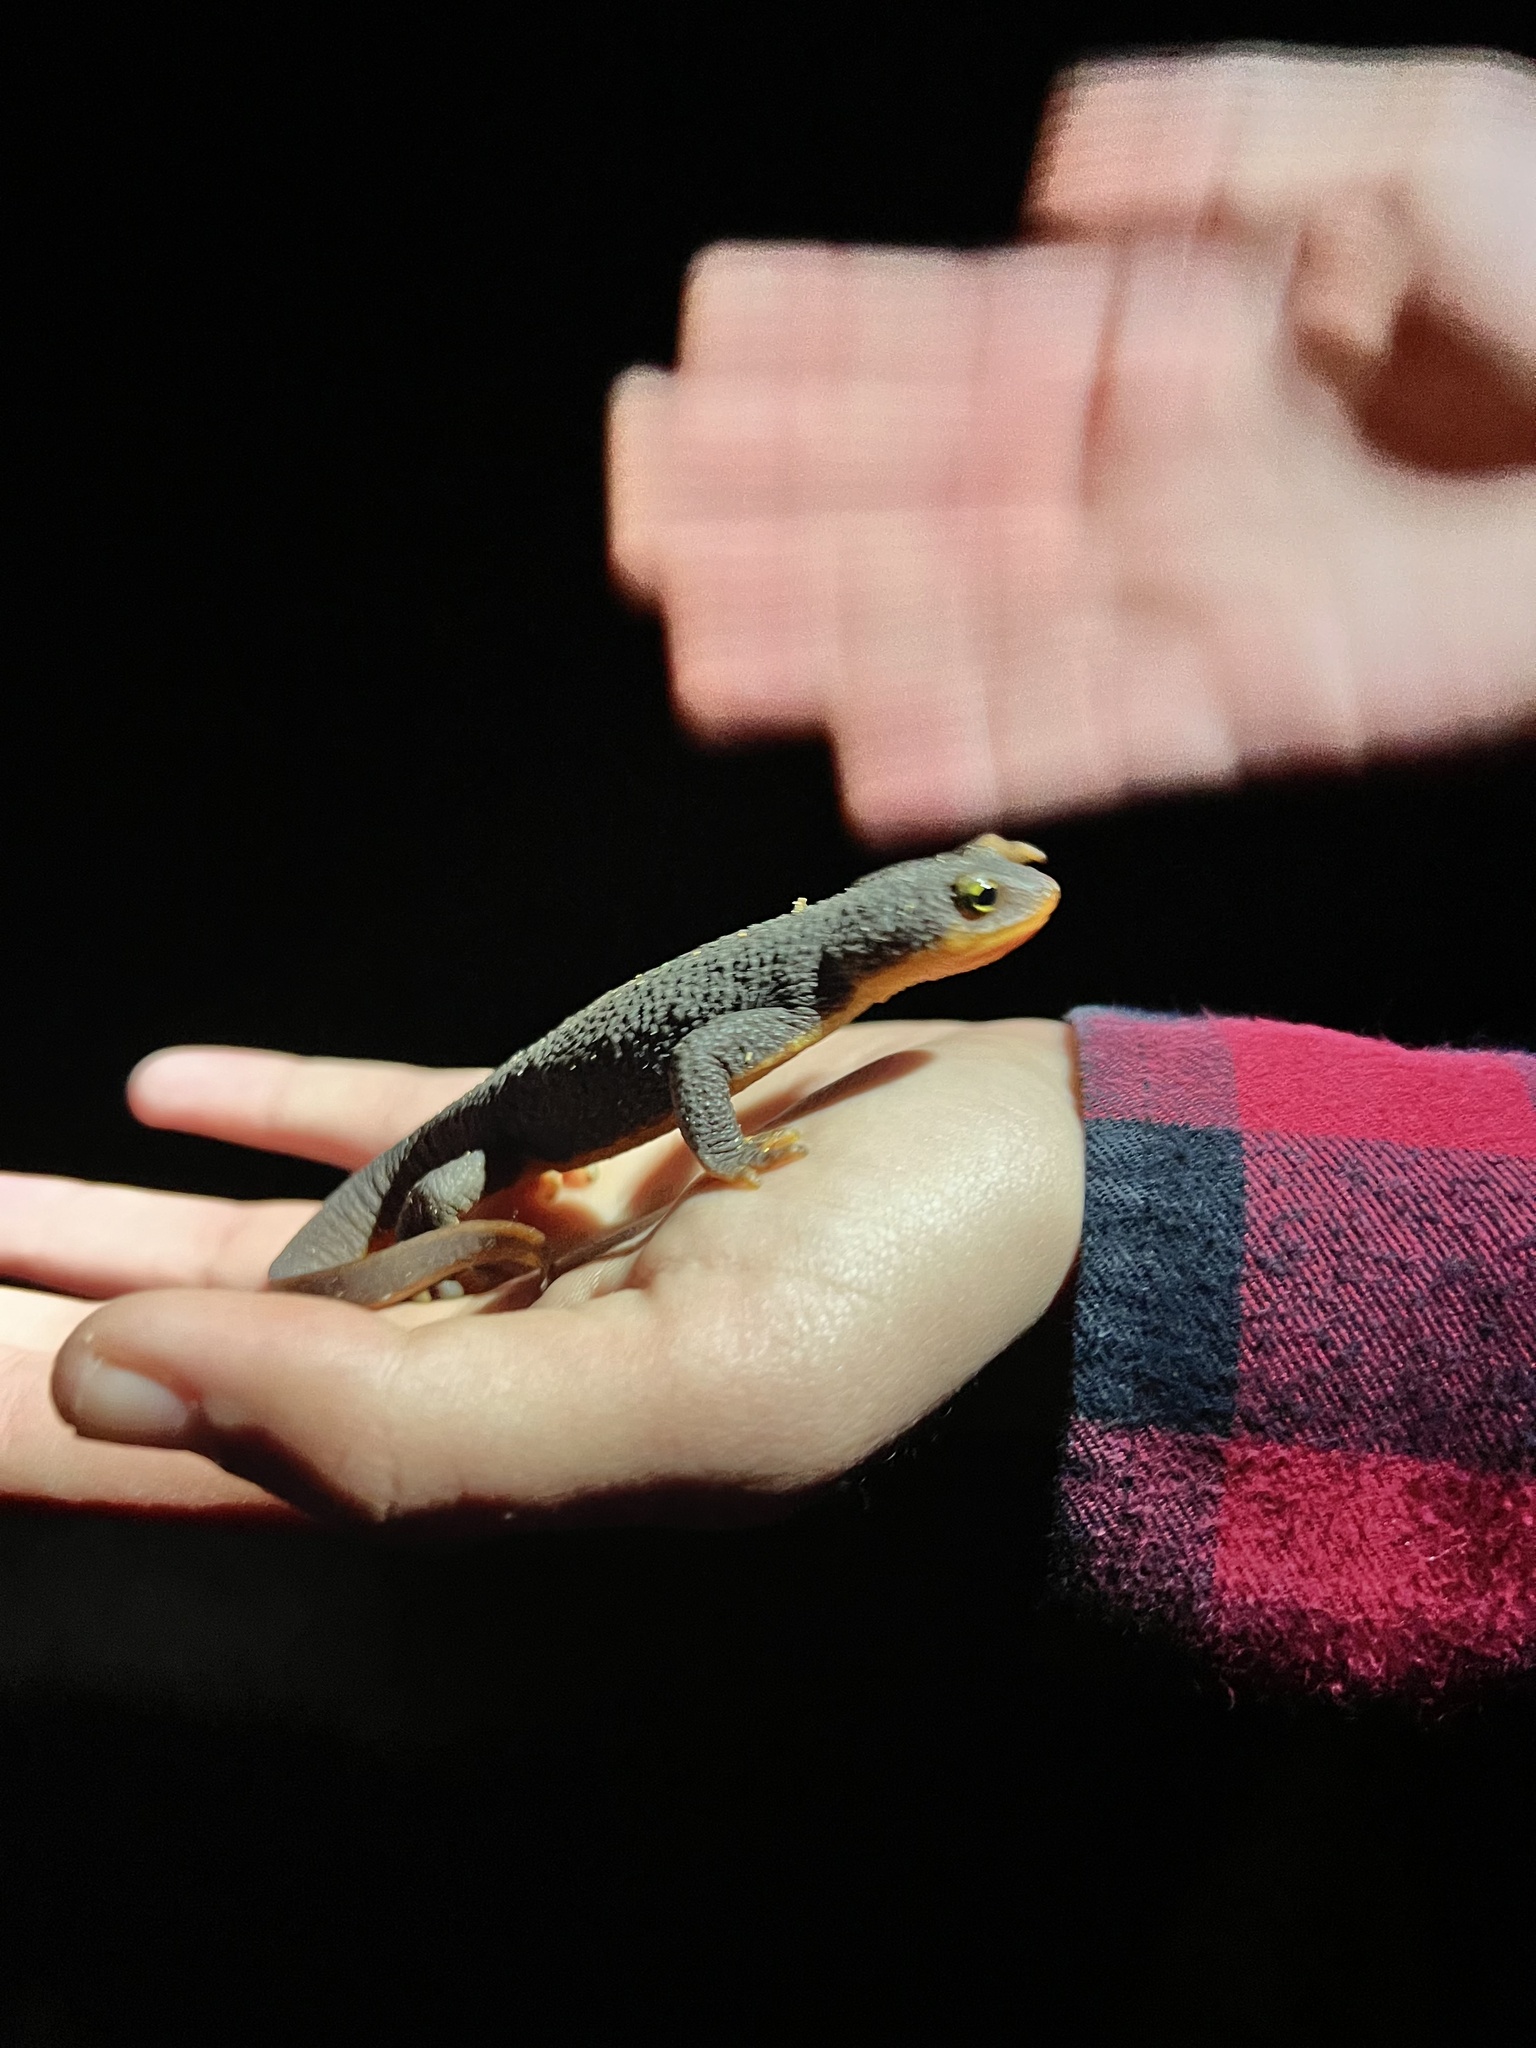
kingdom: Animalia
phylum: Chordata
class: Amphibia
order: Caudata
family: Salamandridae
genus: Taricha
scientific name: Taricha granulosa
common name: Roughskin newt
